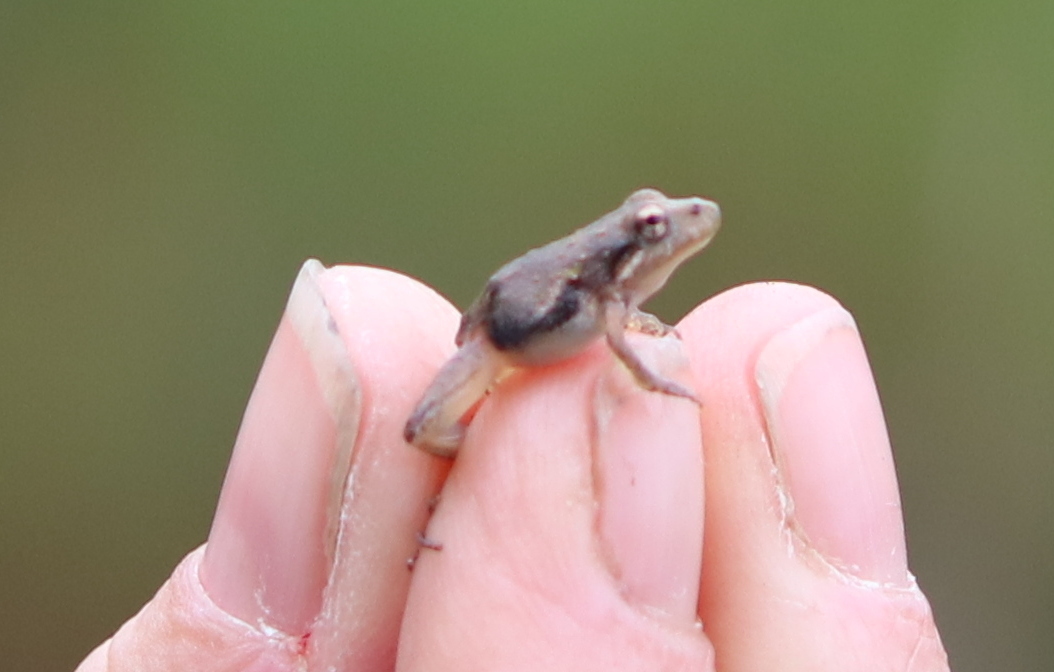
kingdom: Animalia
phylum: Chordata
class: Amphibia
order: Anura
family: Hylidae
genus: Acris
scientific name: Acris gryllus
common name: Southern cricket frog
